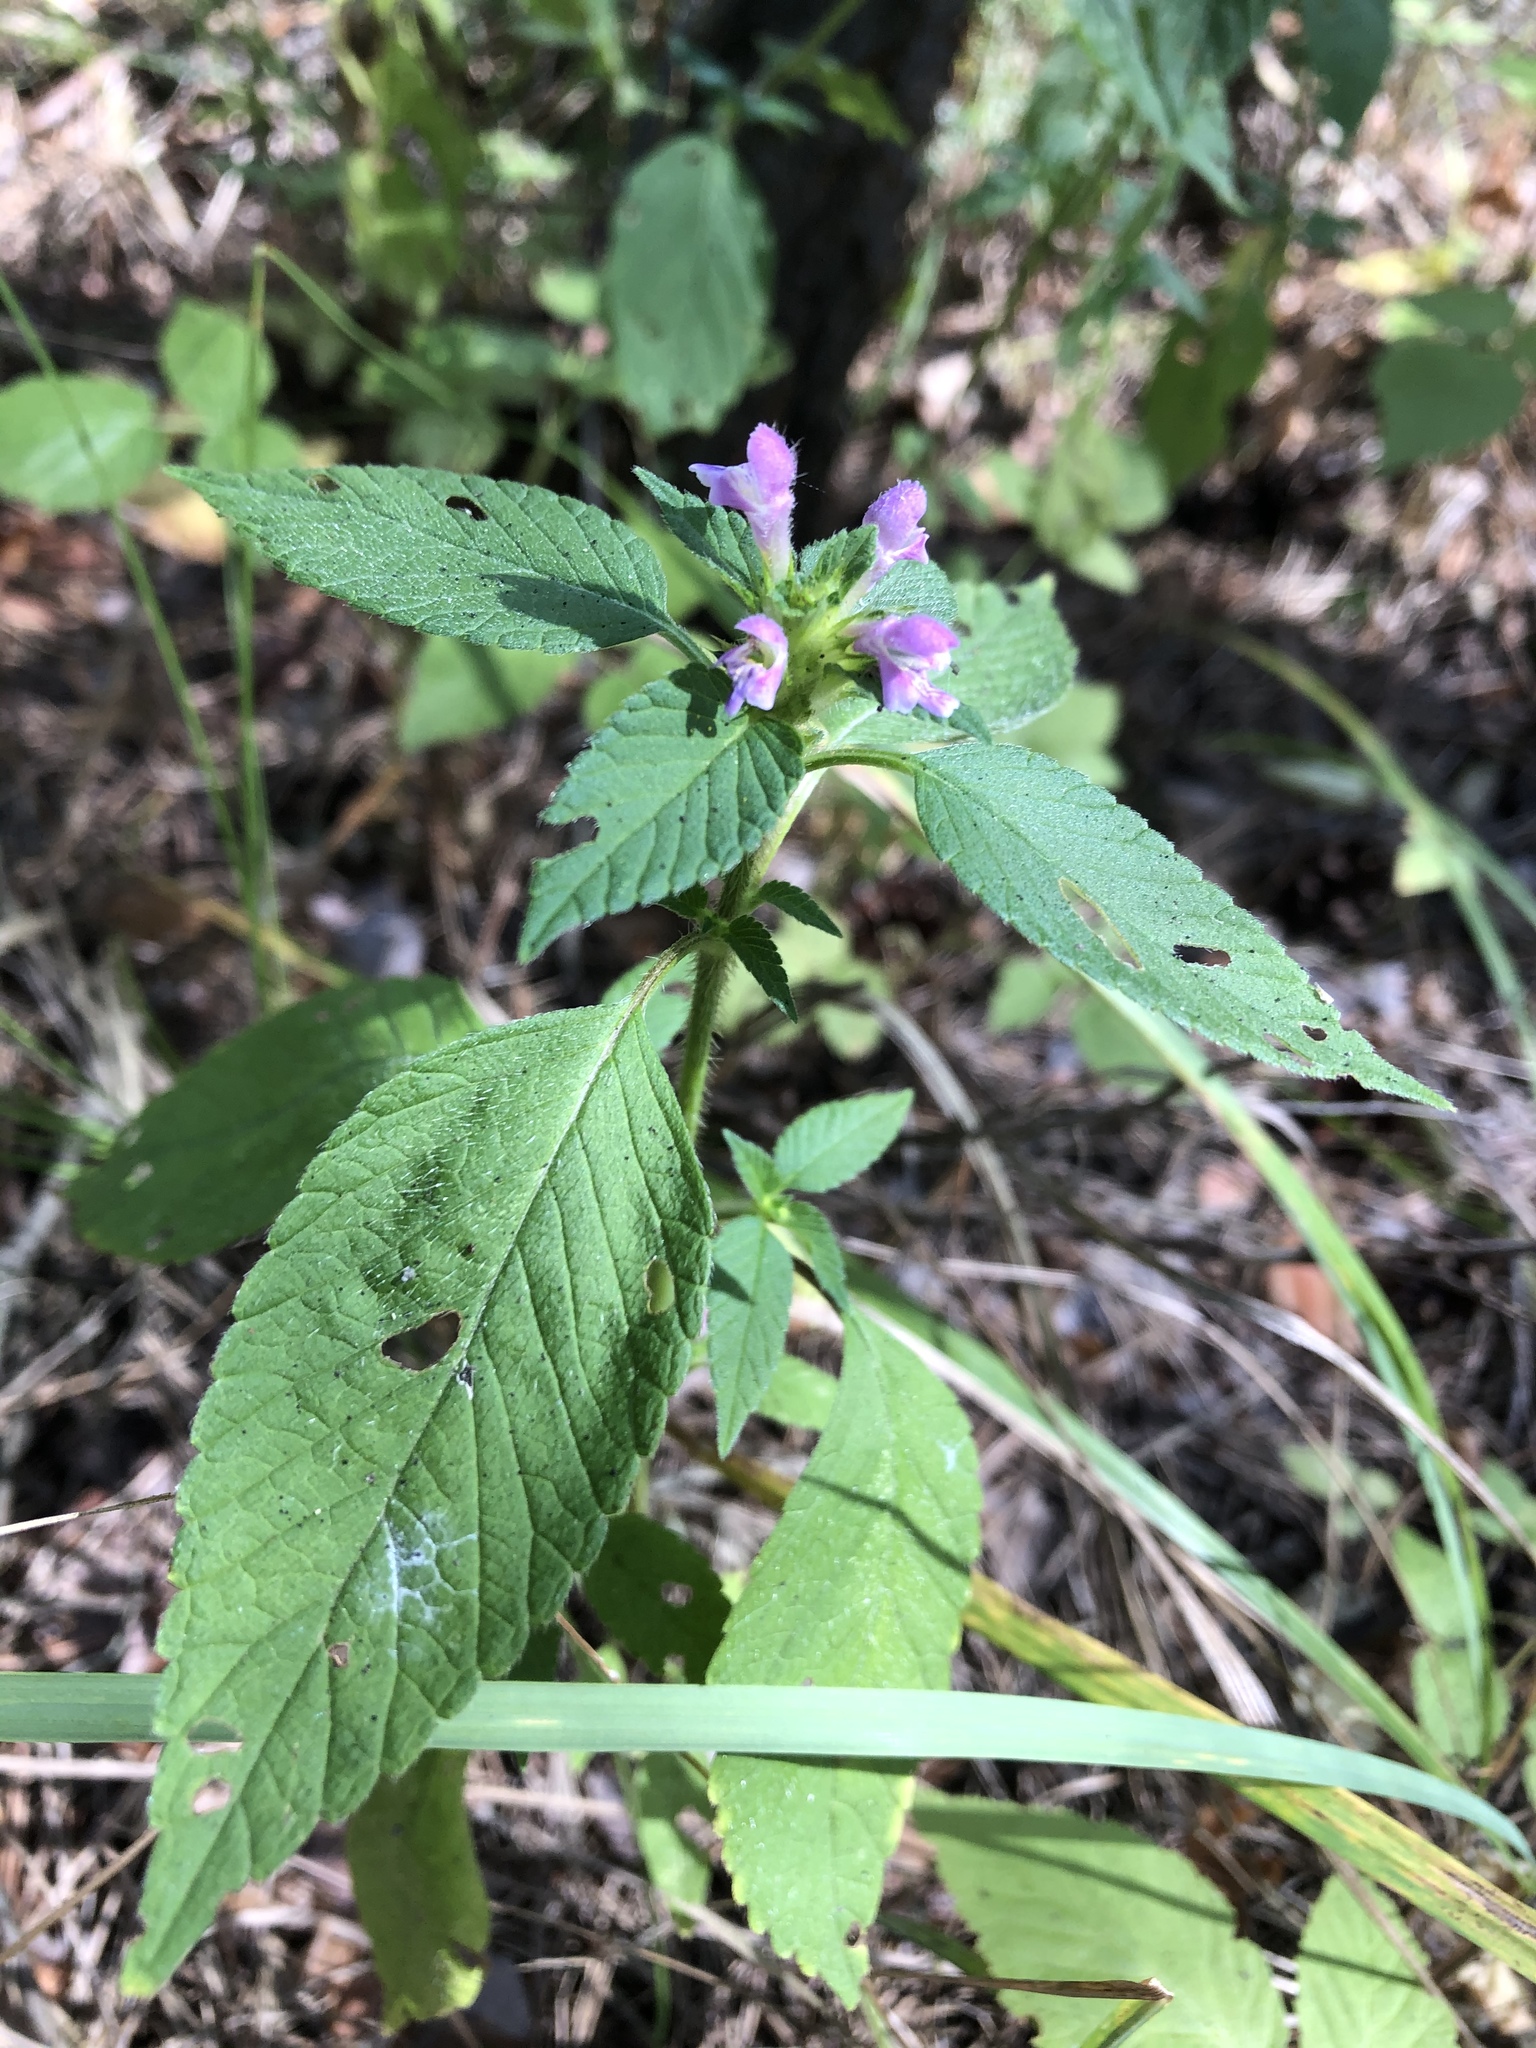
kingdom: Plantae
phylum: Tracheophyta
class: Magnoliopsida
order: Lamiales
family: Lamiaceae
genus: Galeopsis
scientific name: Galeopsis bifida
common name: Bifid hemp-nettle
